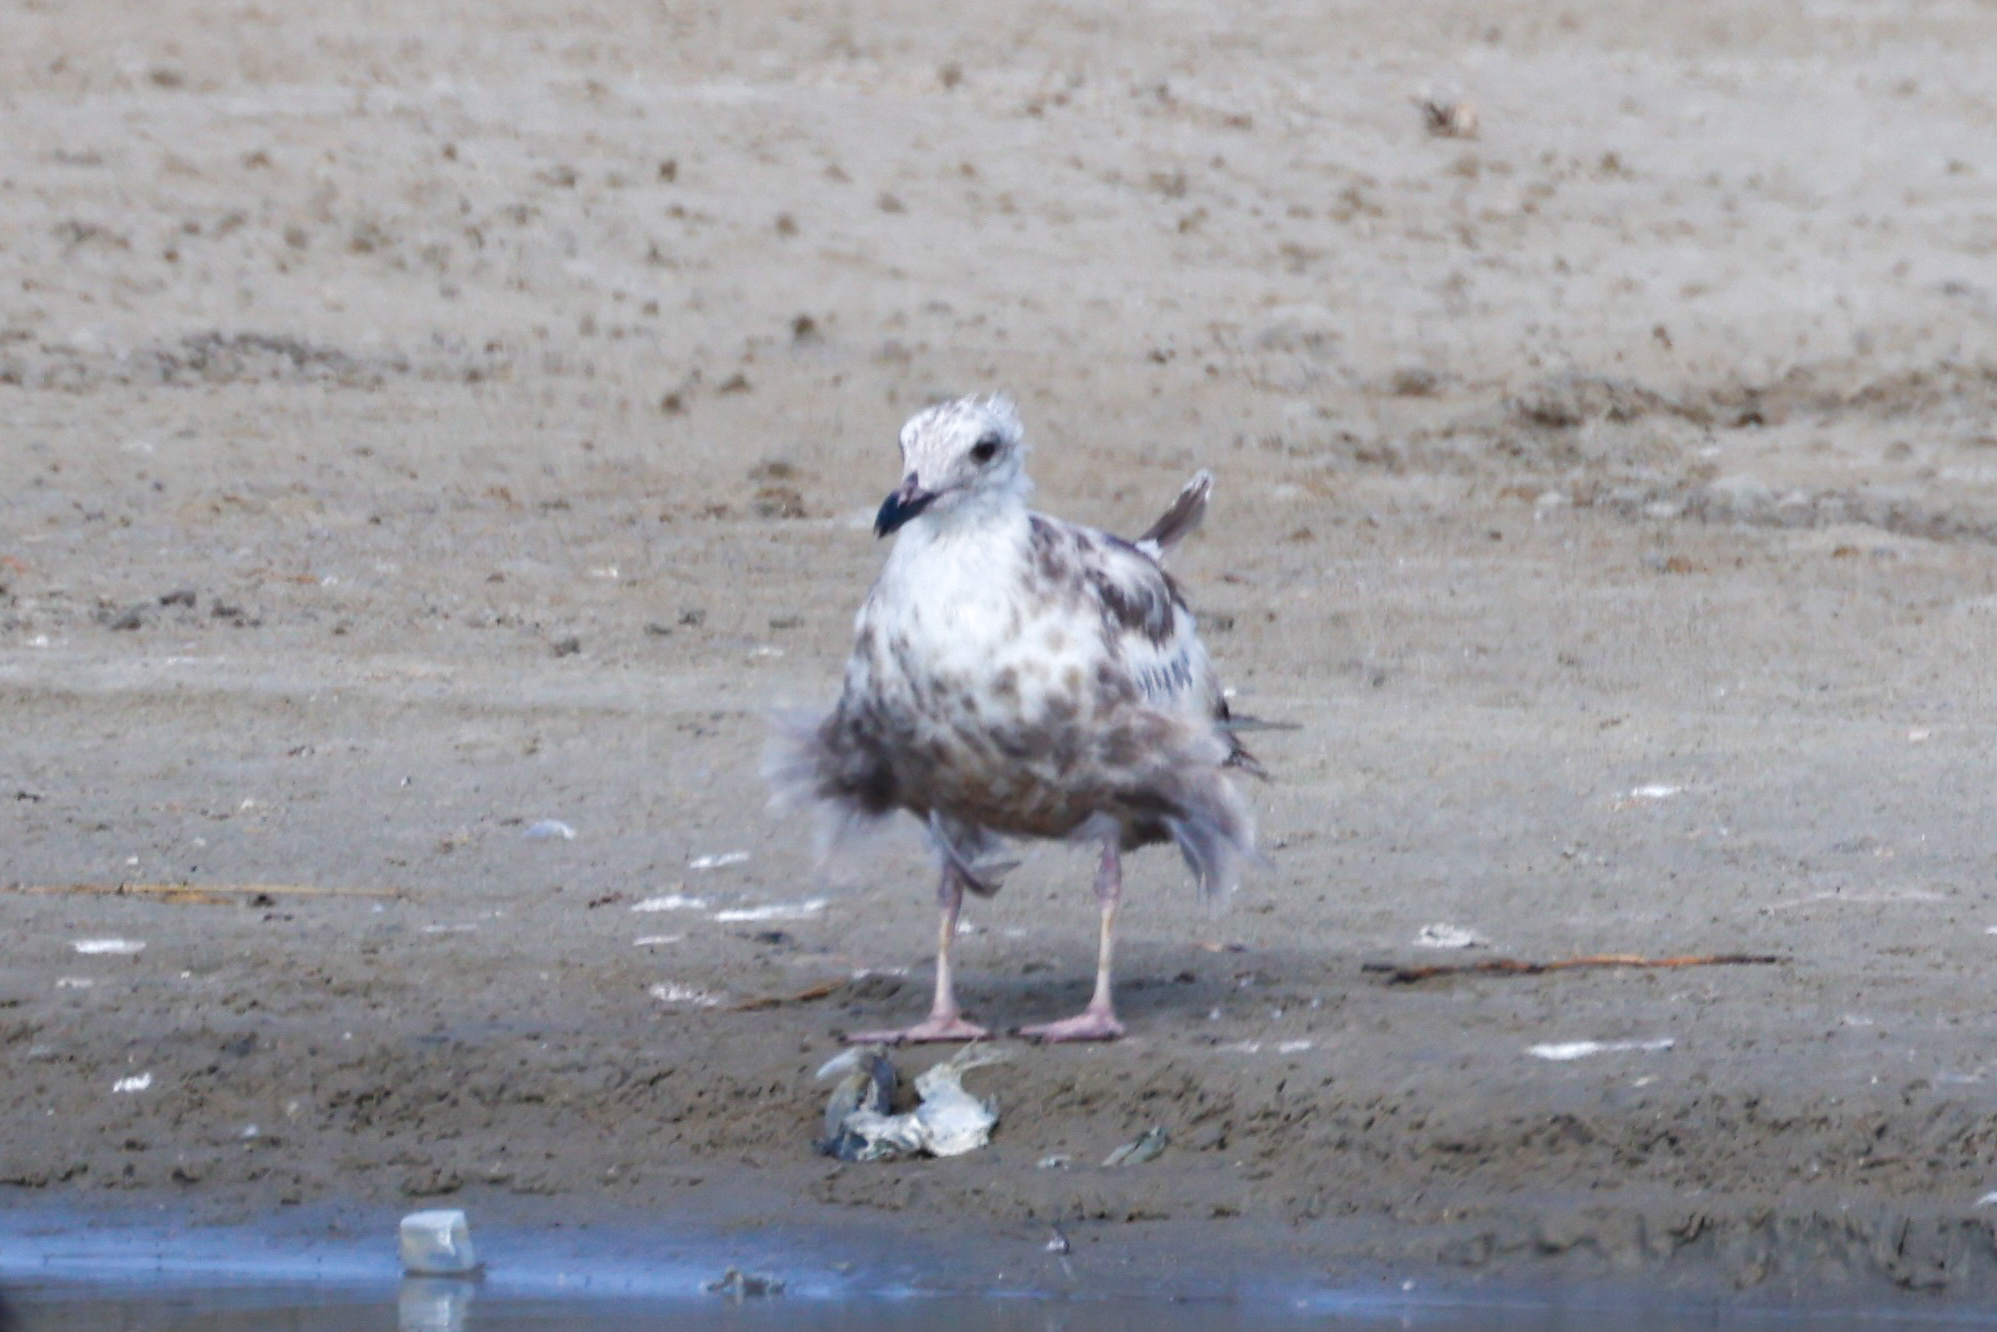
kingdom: Animalia
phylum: Chordata
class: Aves
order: Charadriiformes
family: Laridae
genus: Larus
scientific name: Larus argentatus
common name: Herring gull
